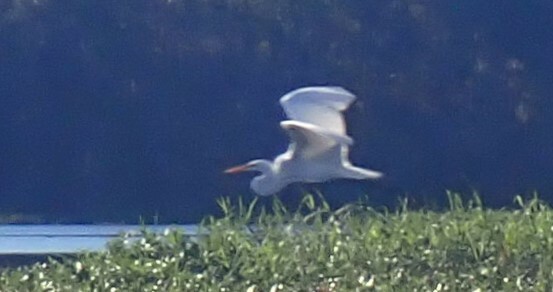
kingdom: Animalia
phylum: Chordata
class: Aves
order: Pelecaniformes
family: Ardeidae
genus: Ardea
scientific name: Ardea alba
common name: Great egret
